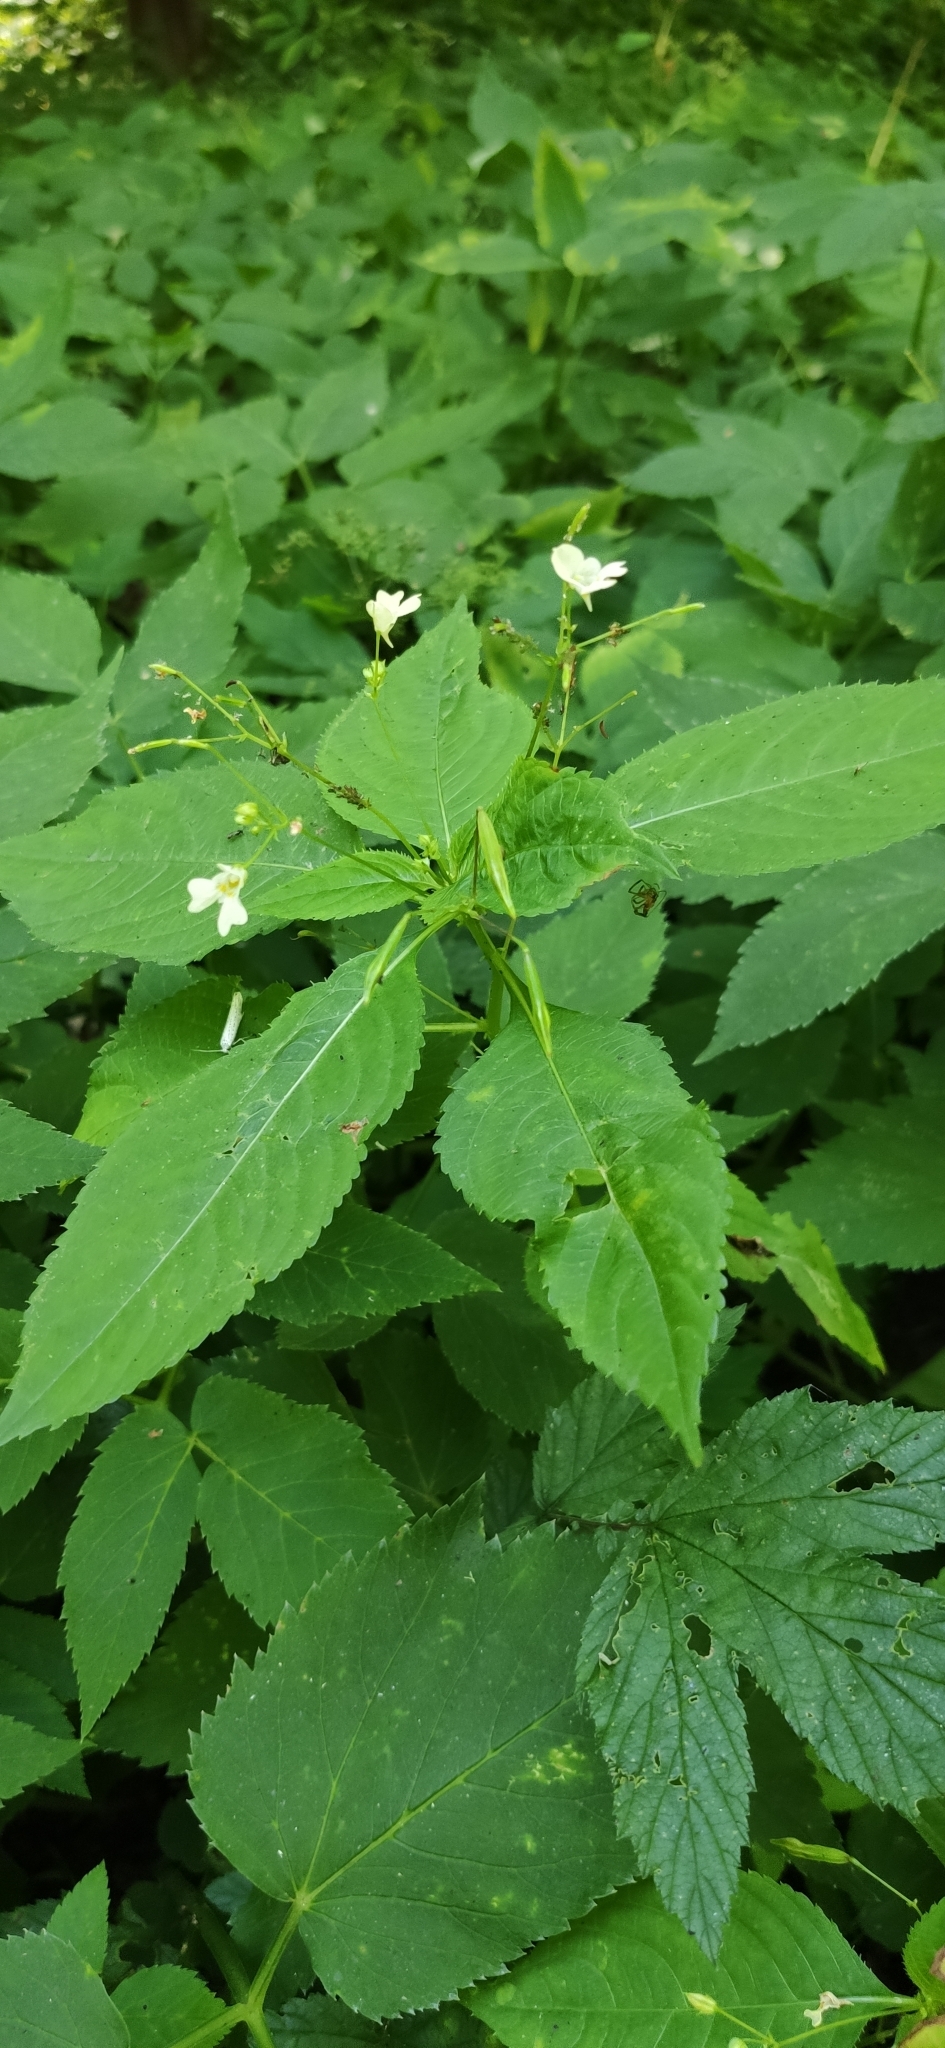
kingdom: Plantae
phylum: Tracheophyta
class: Magnoliopsida
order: Ericales
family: Balsaminaceae
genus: Impatiens
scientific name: Impatiens parviflora
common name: Small balsam
